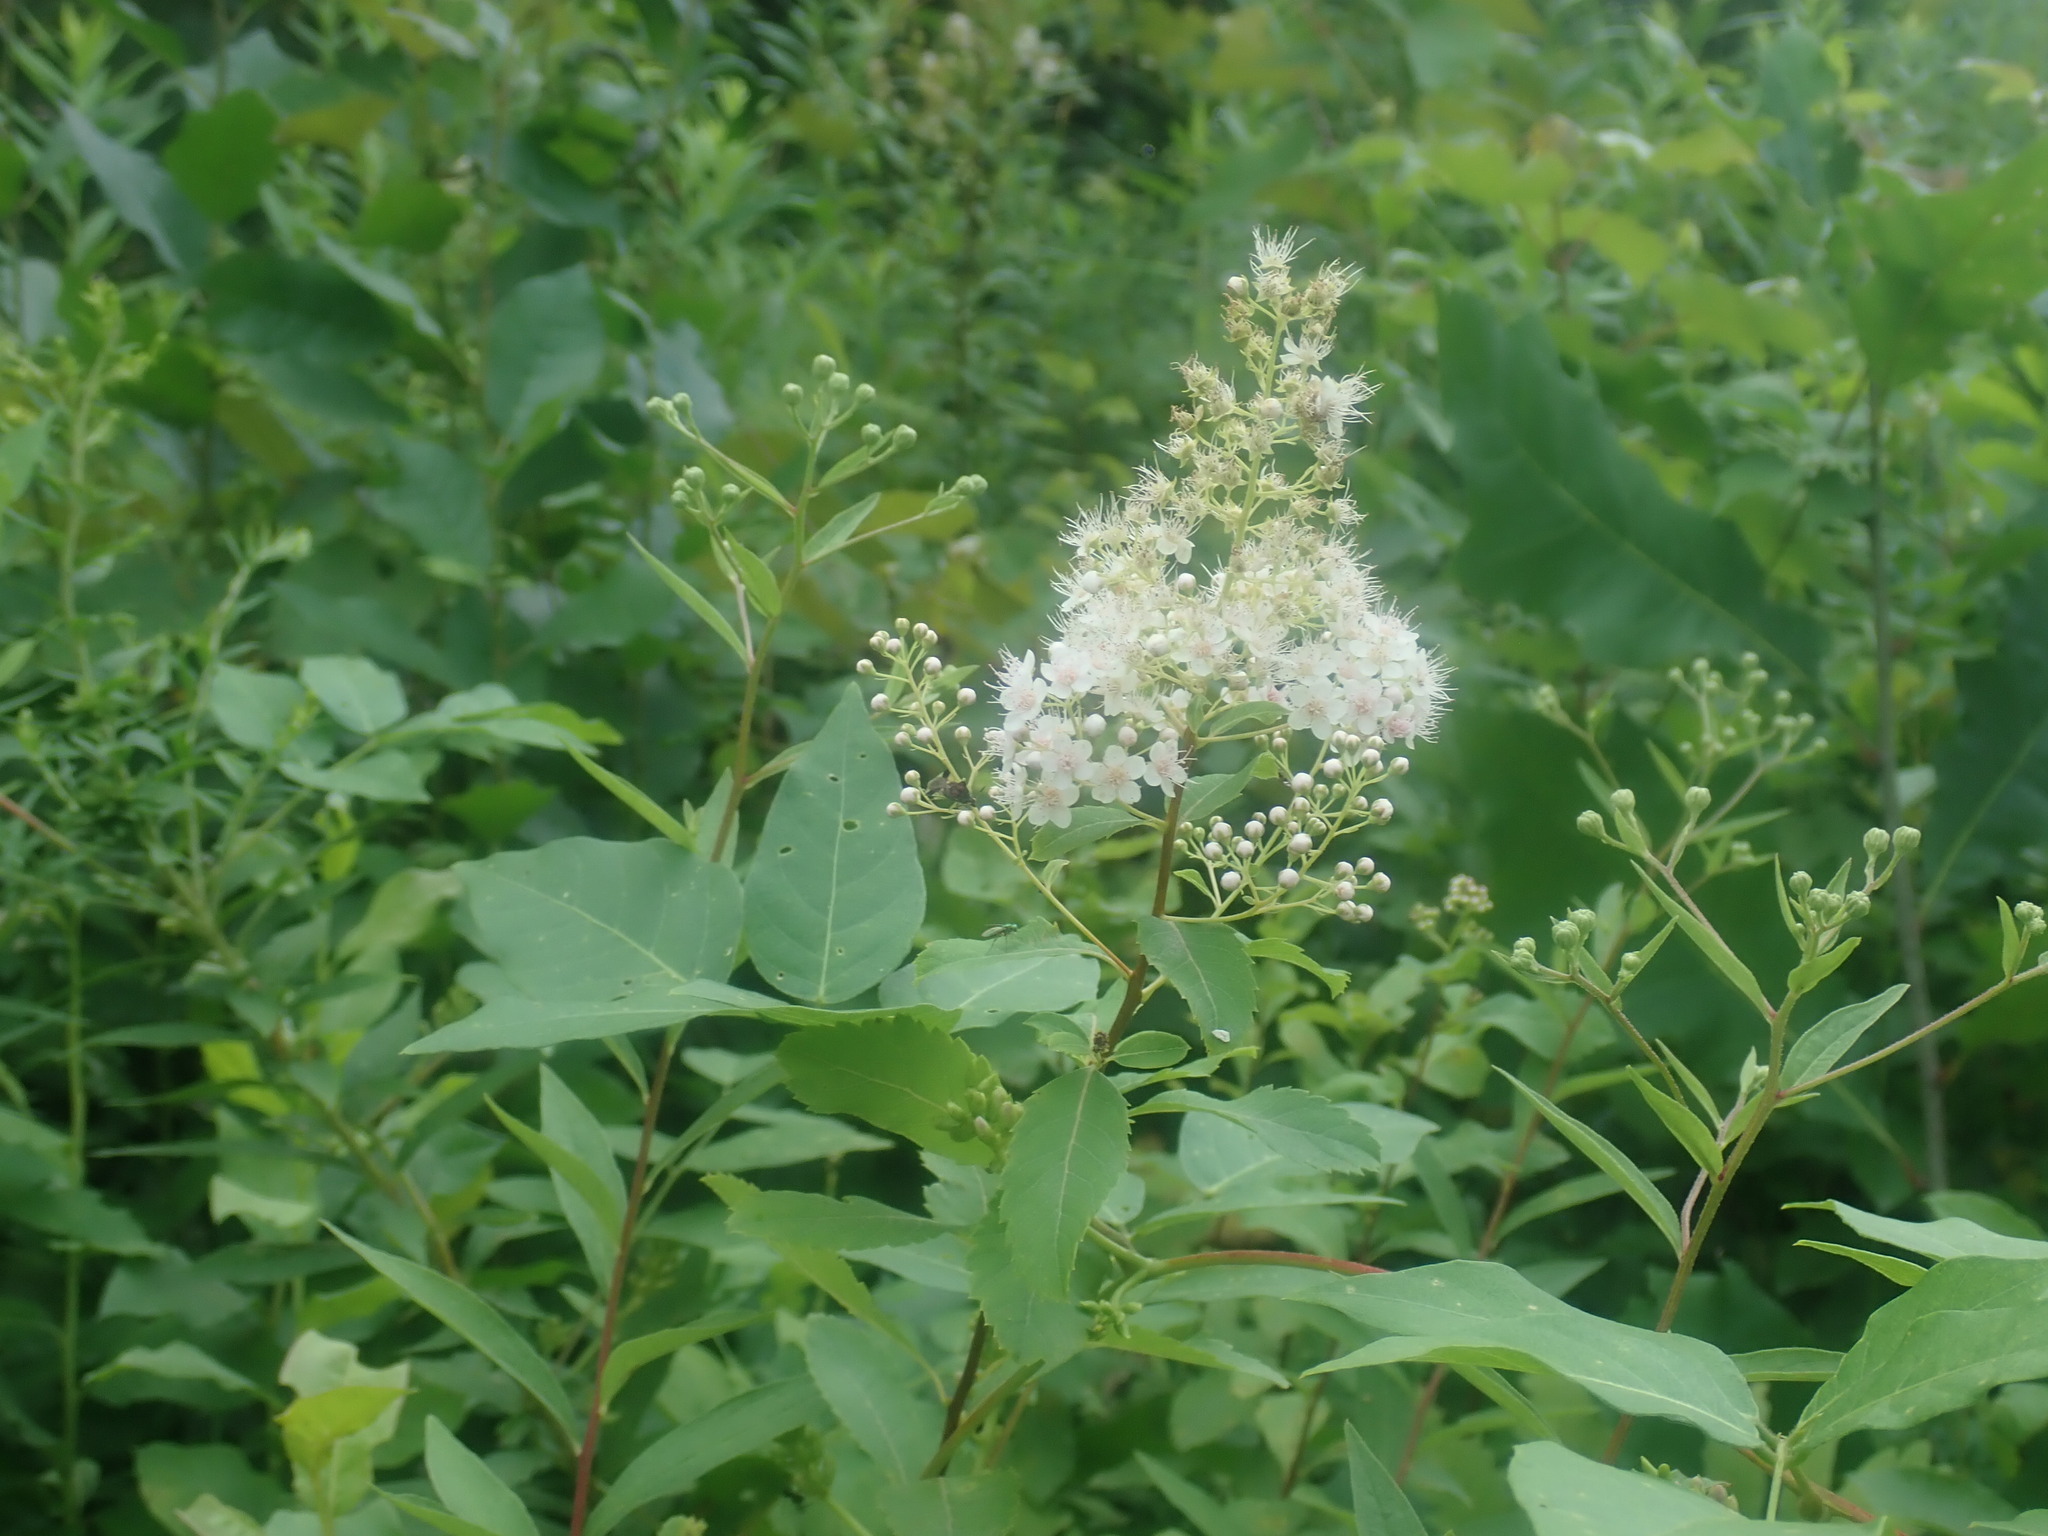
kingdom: Plantae
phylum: Tracheophyta
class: Magnoliopsida
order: Rosales
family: Rosaceae
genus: Spiraea
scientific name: Spiraea alba
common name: Pale bridewort
